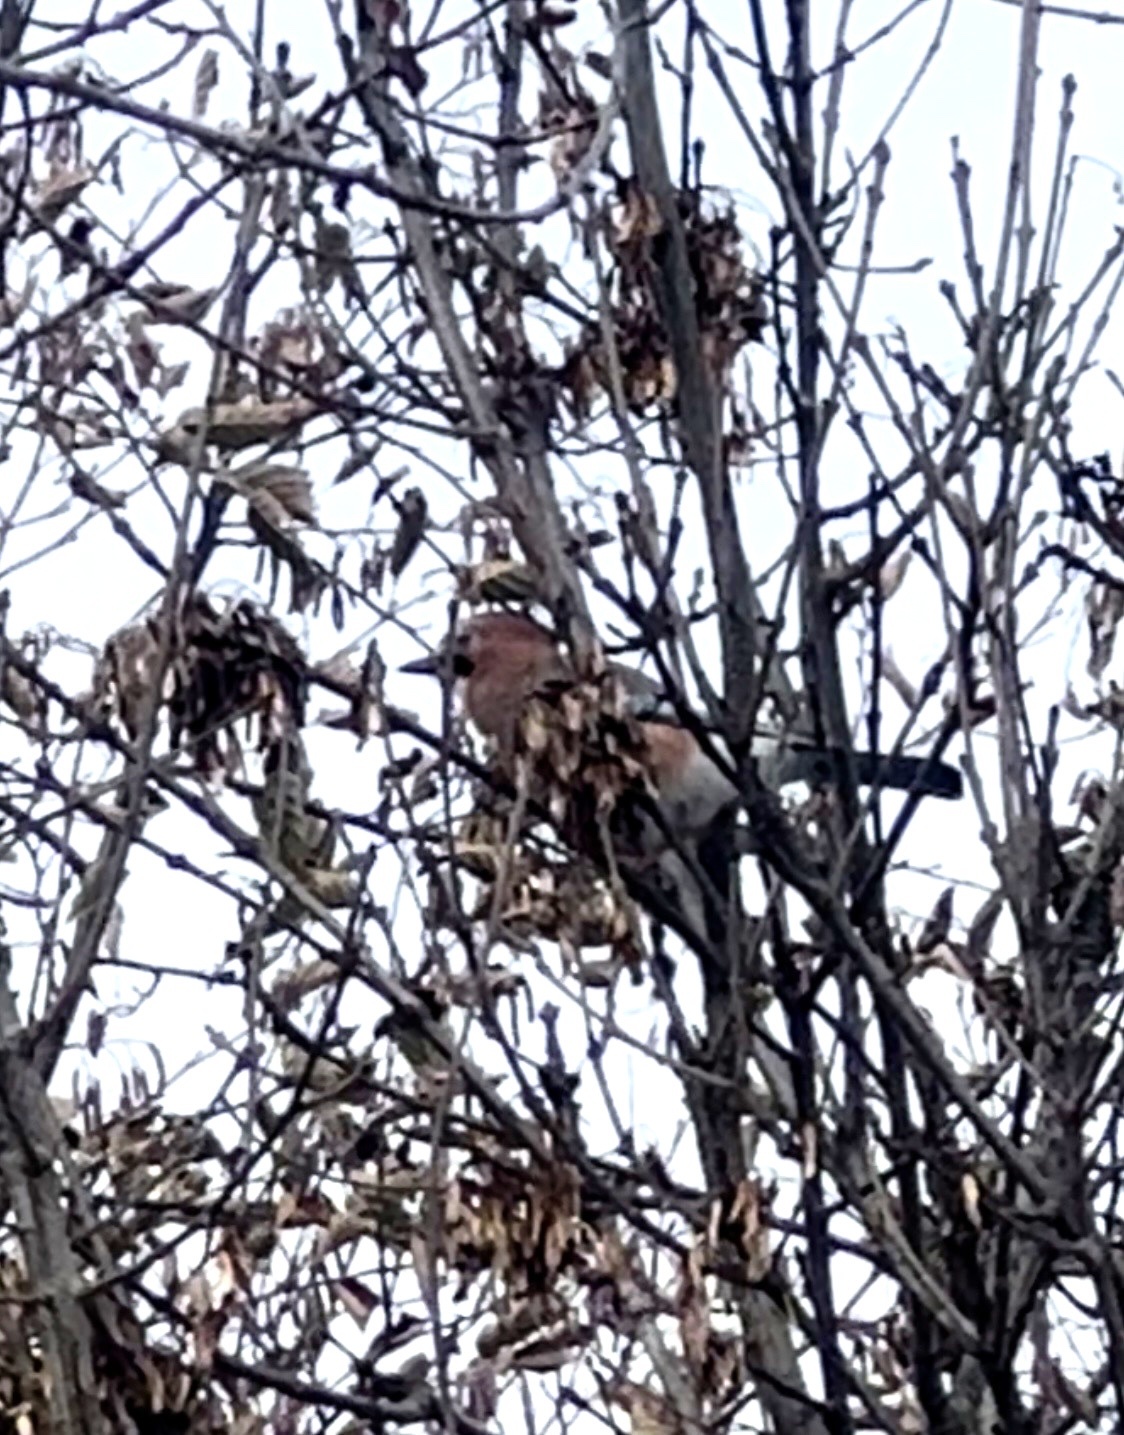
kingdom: Animalia
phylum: Chordata
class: Aves
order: Passeriformes
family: Corvidae
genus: Garrulus
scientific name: Garrulus glandarius
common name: Eurasian jay
